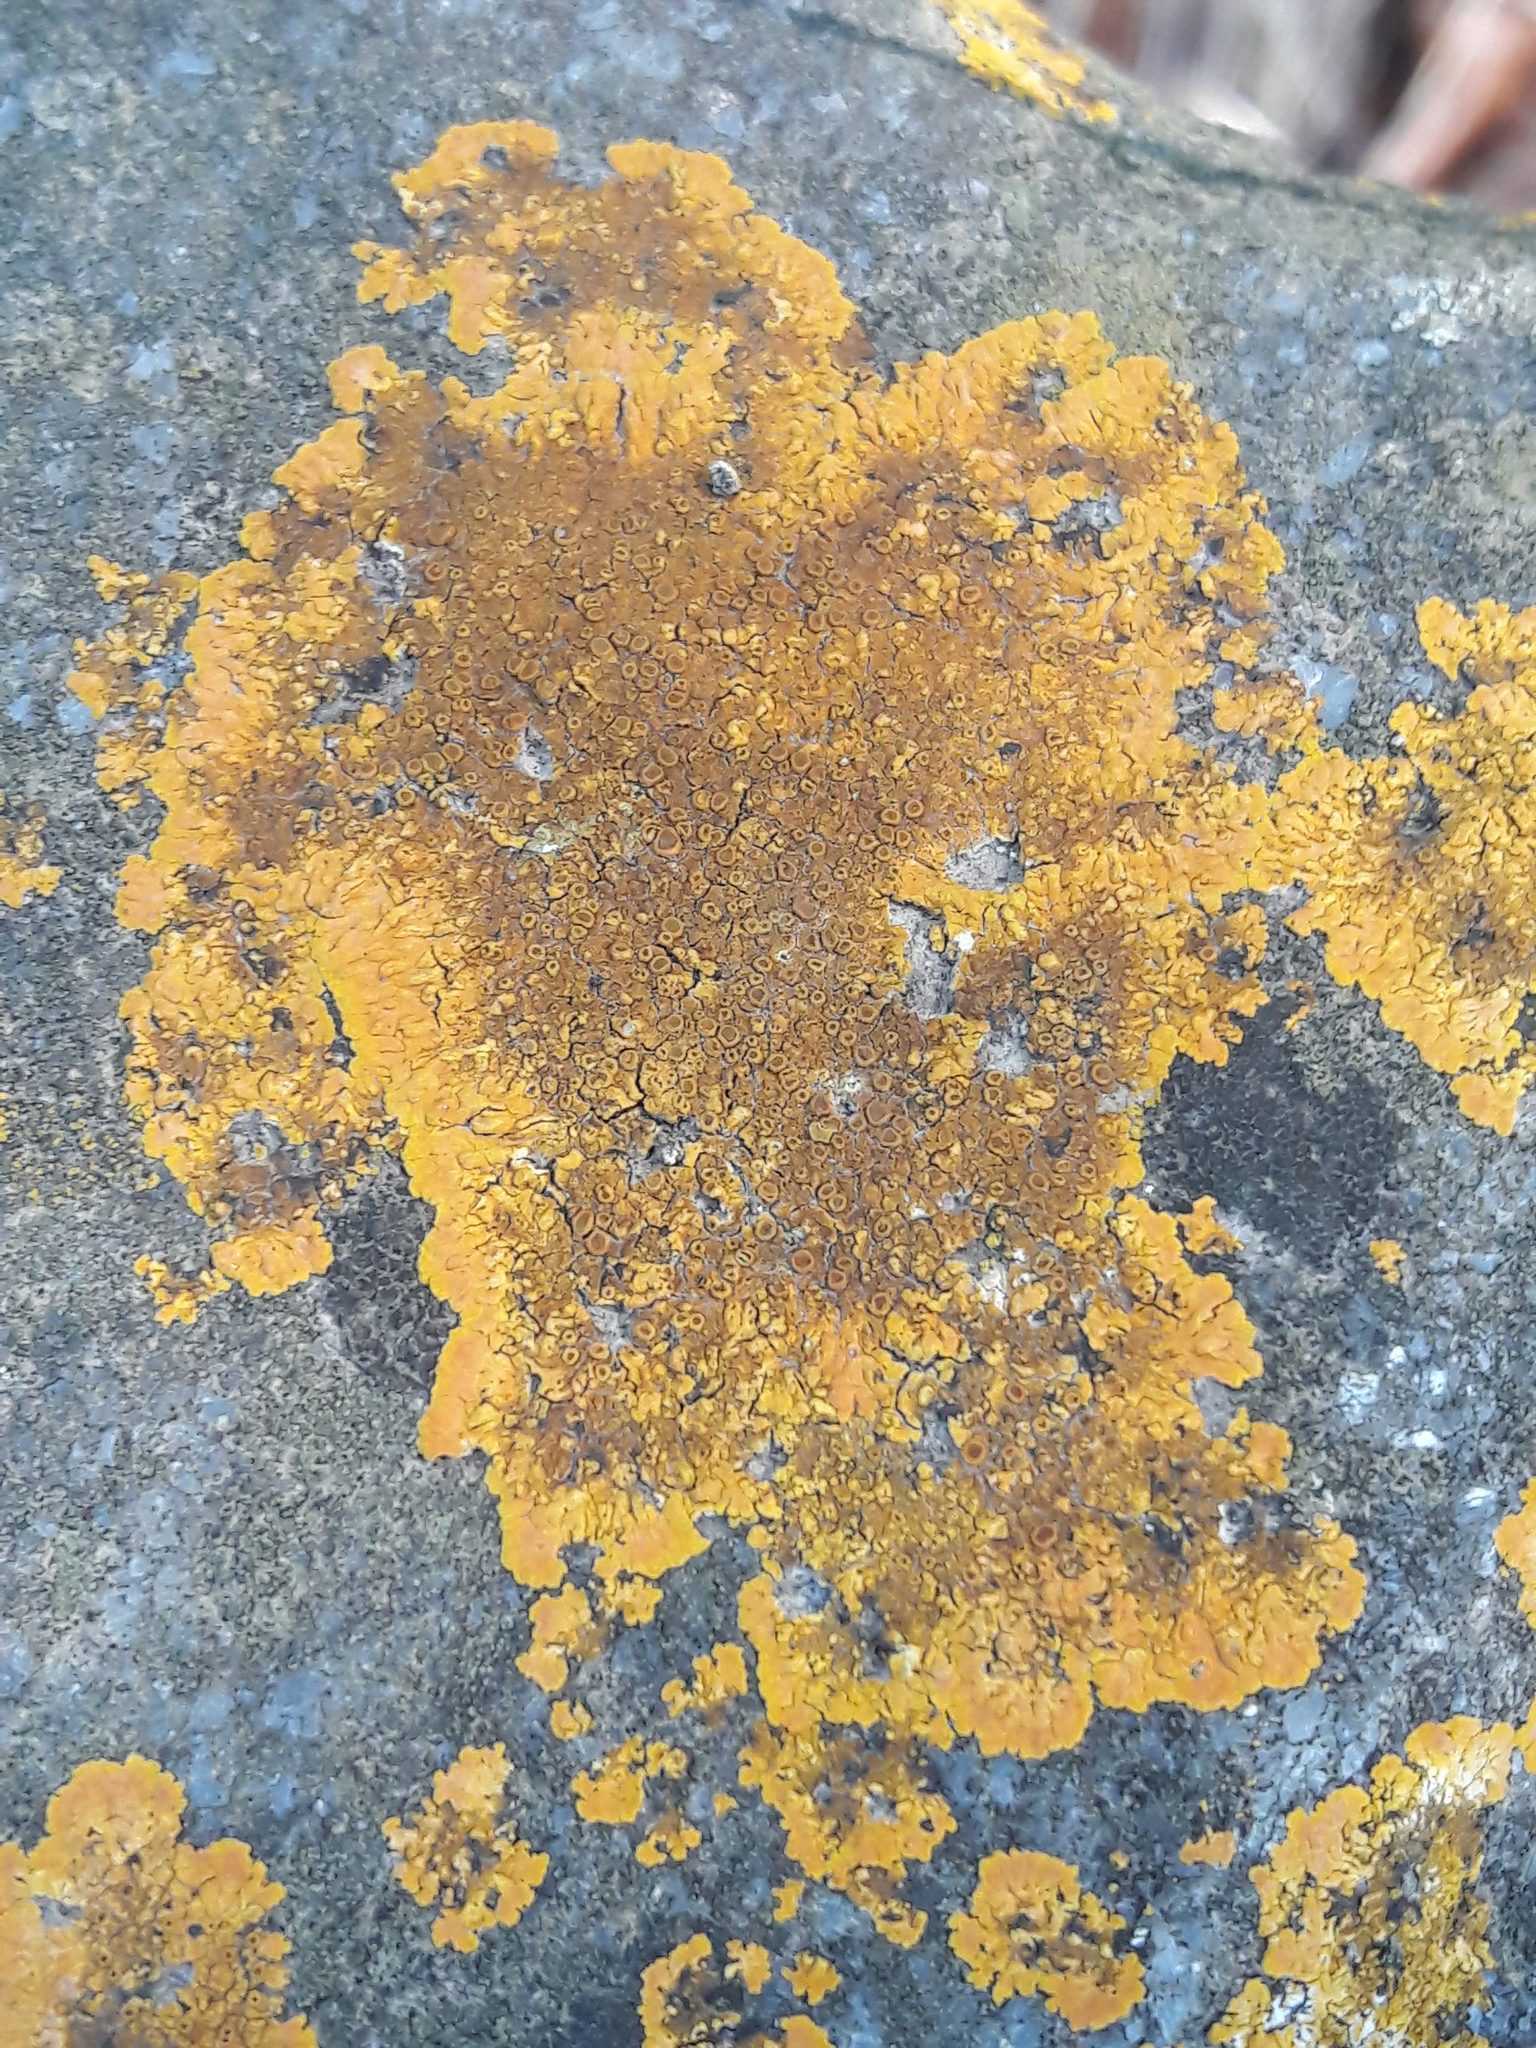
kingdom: Fungi
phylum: Ascomycota
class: Lecanoromycetes
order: Teloschistales
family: Teloschistaceae
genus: Xanthoria
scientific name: Xanthoria parietina
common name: Common orange lichen
